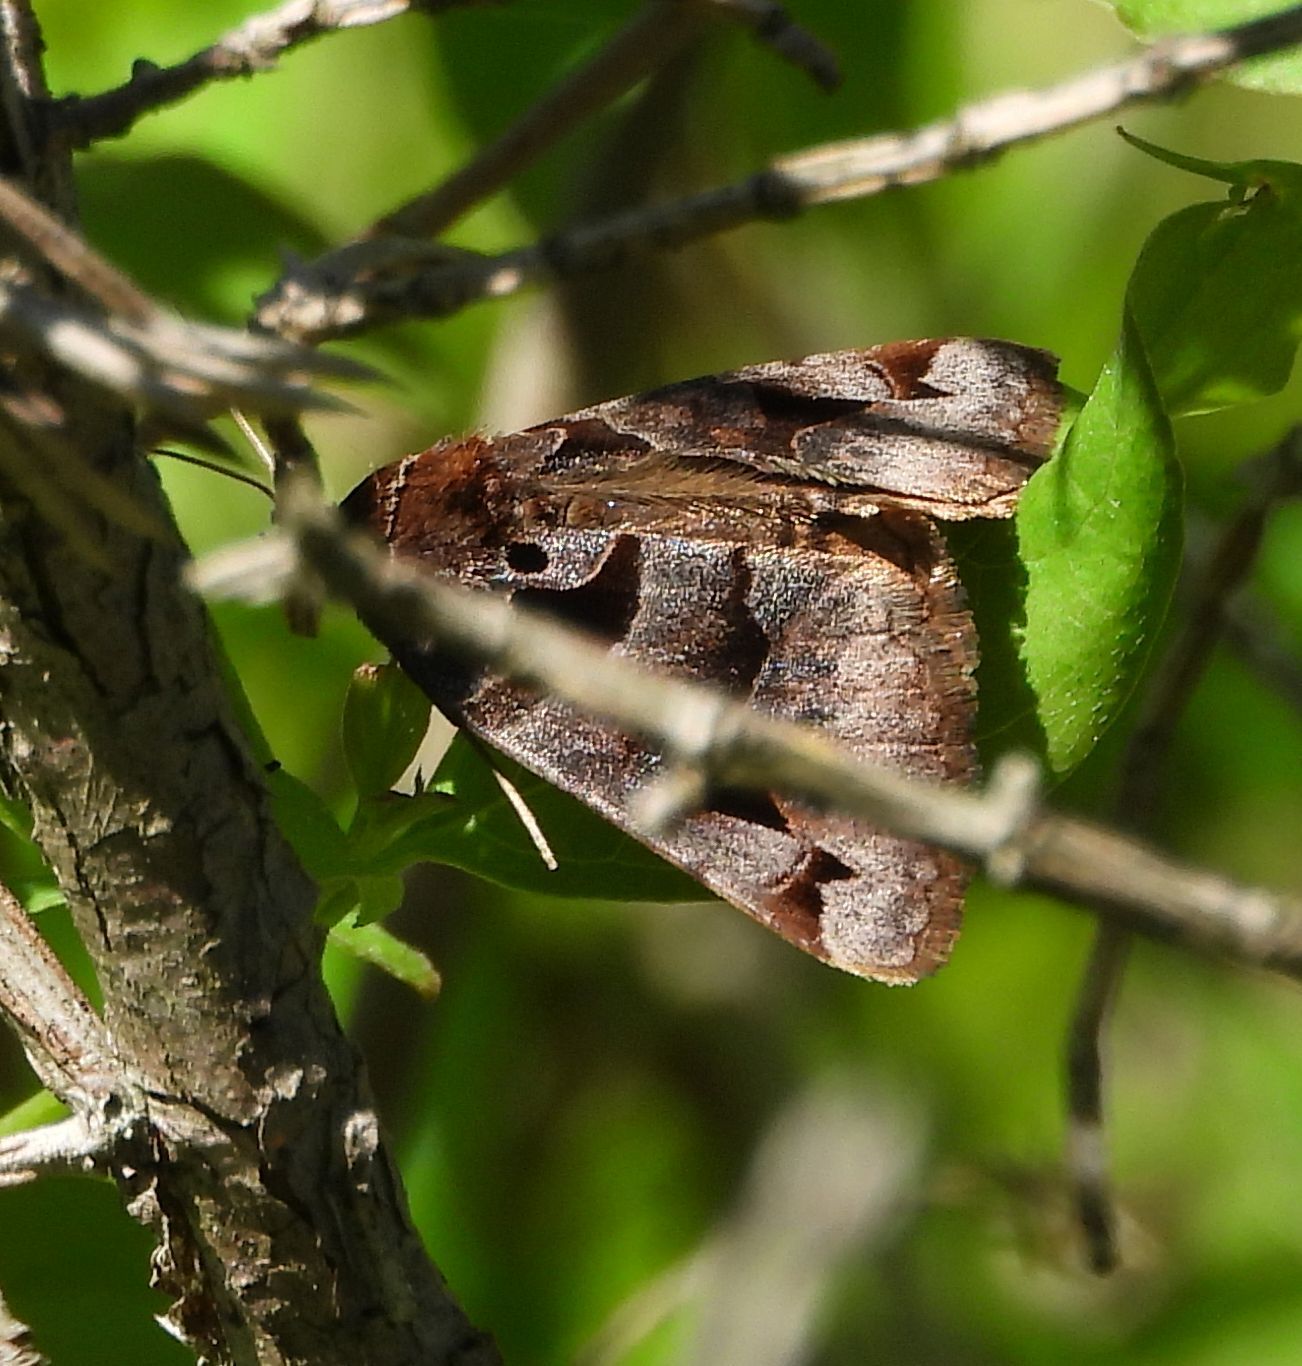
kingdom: Animalia
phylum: Arthropoda
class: Insecta
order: Lepidoptera
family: Erebidae
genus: Euclidia
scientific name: Euclidia cuspidea
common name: Toothed somberwing
